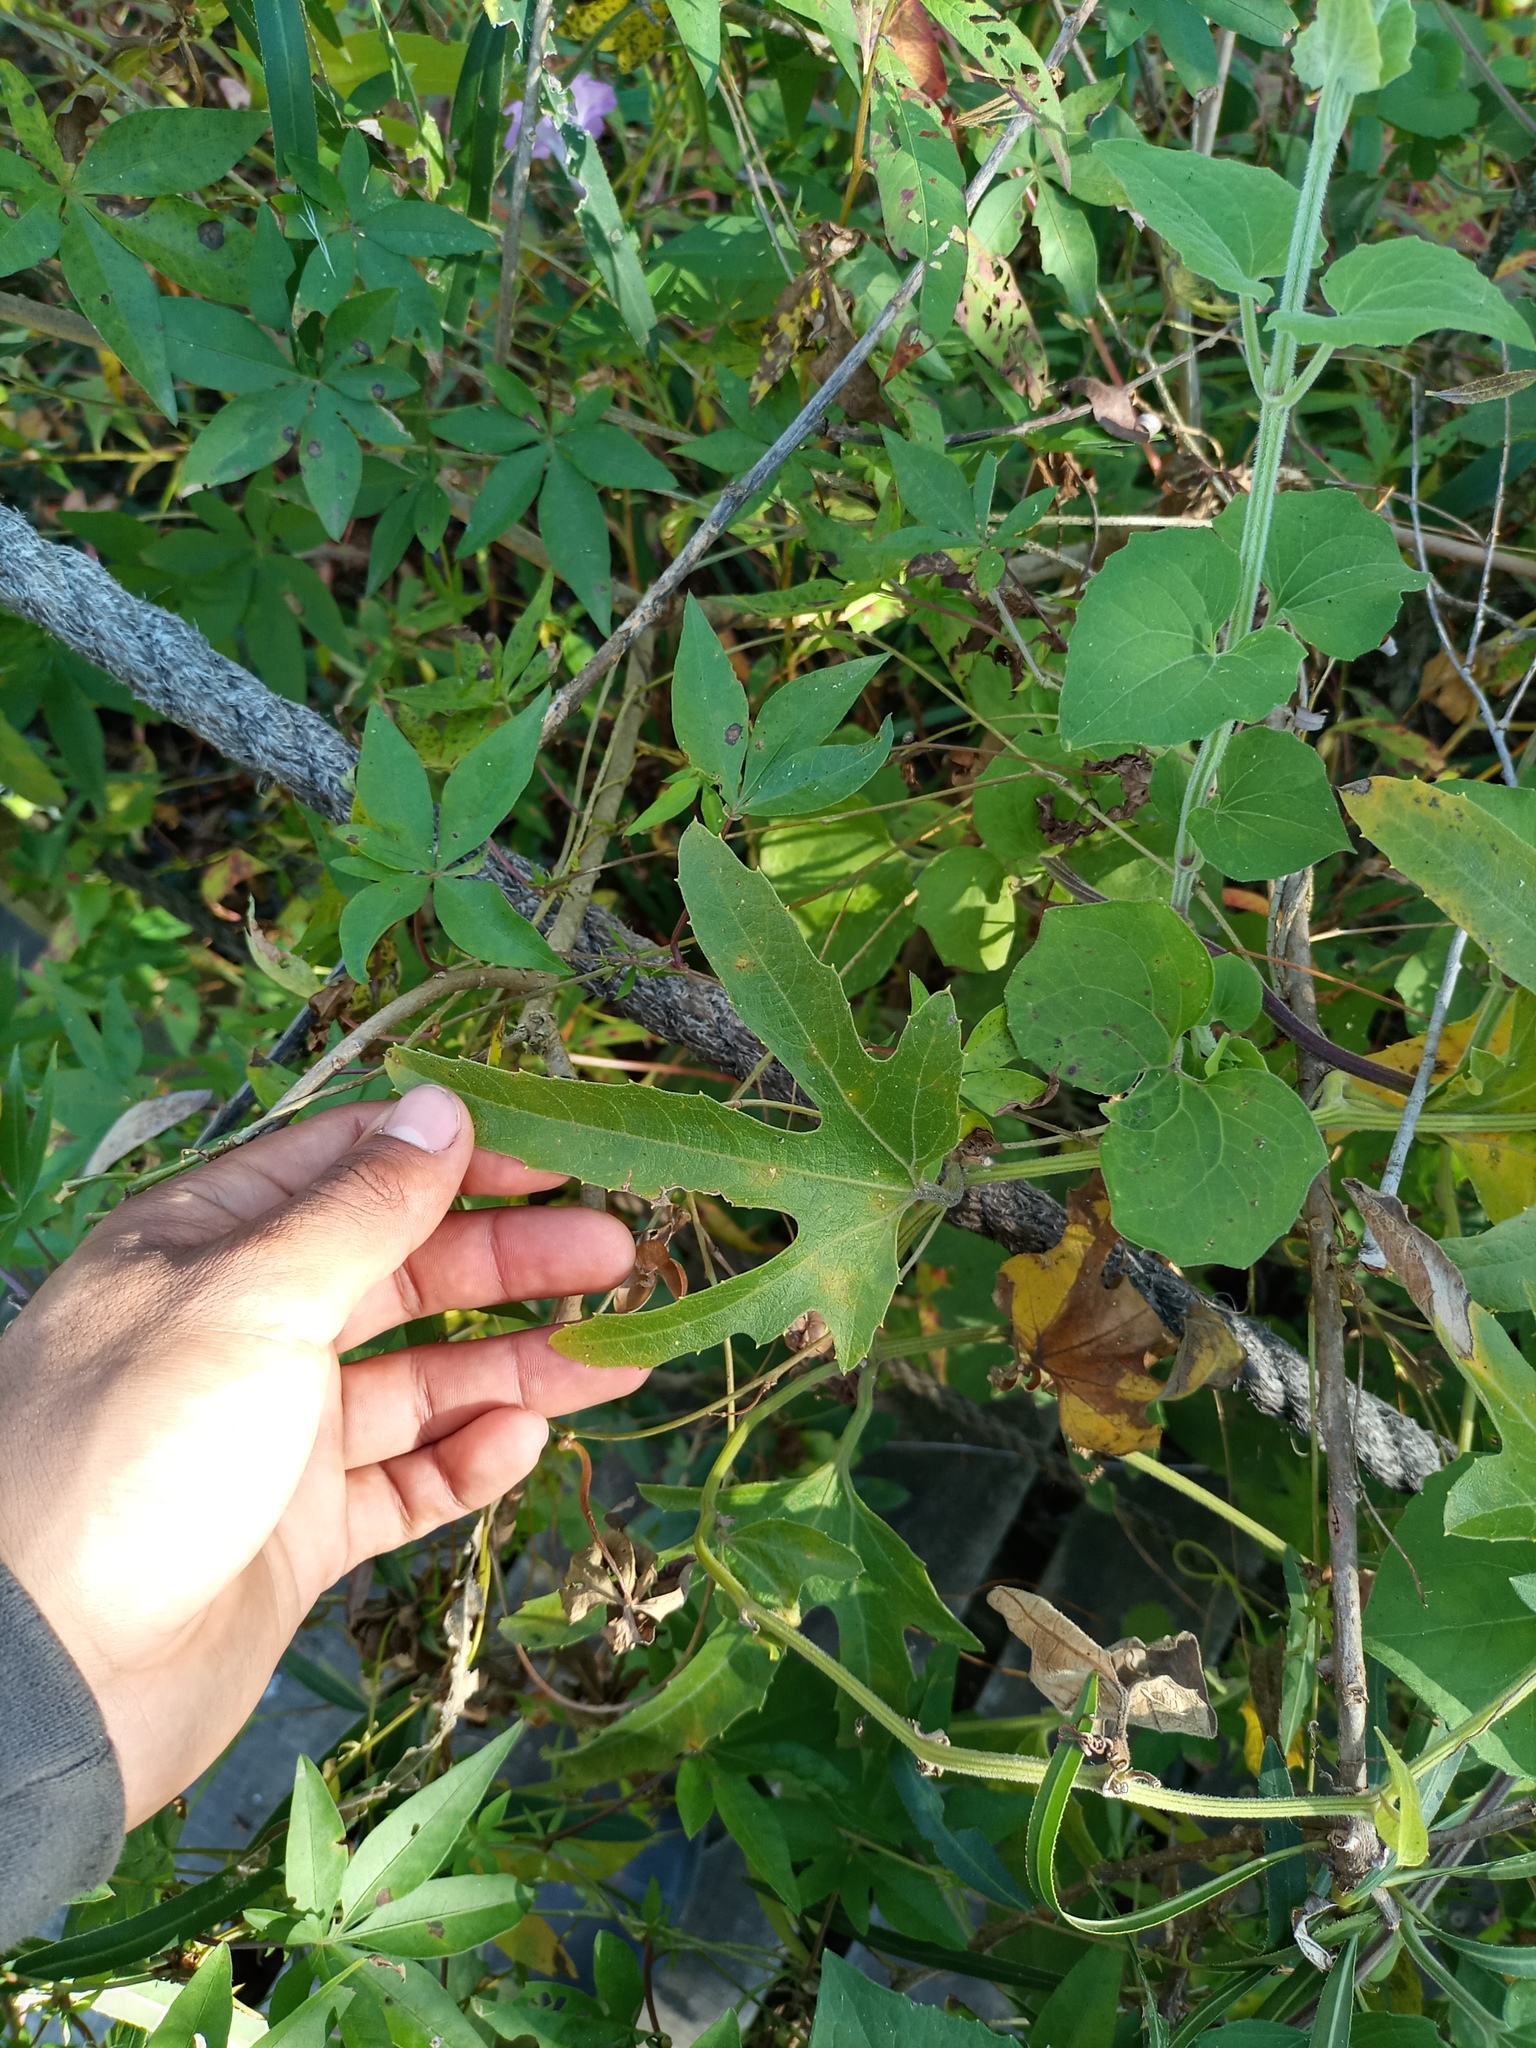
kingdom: Plantae
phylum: Tracheophyta
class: Magnoliopsida
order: Cucurbitales
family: Cucurbitaceae
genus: Cayaponia
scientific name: Cayaponia bonariensis
